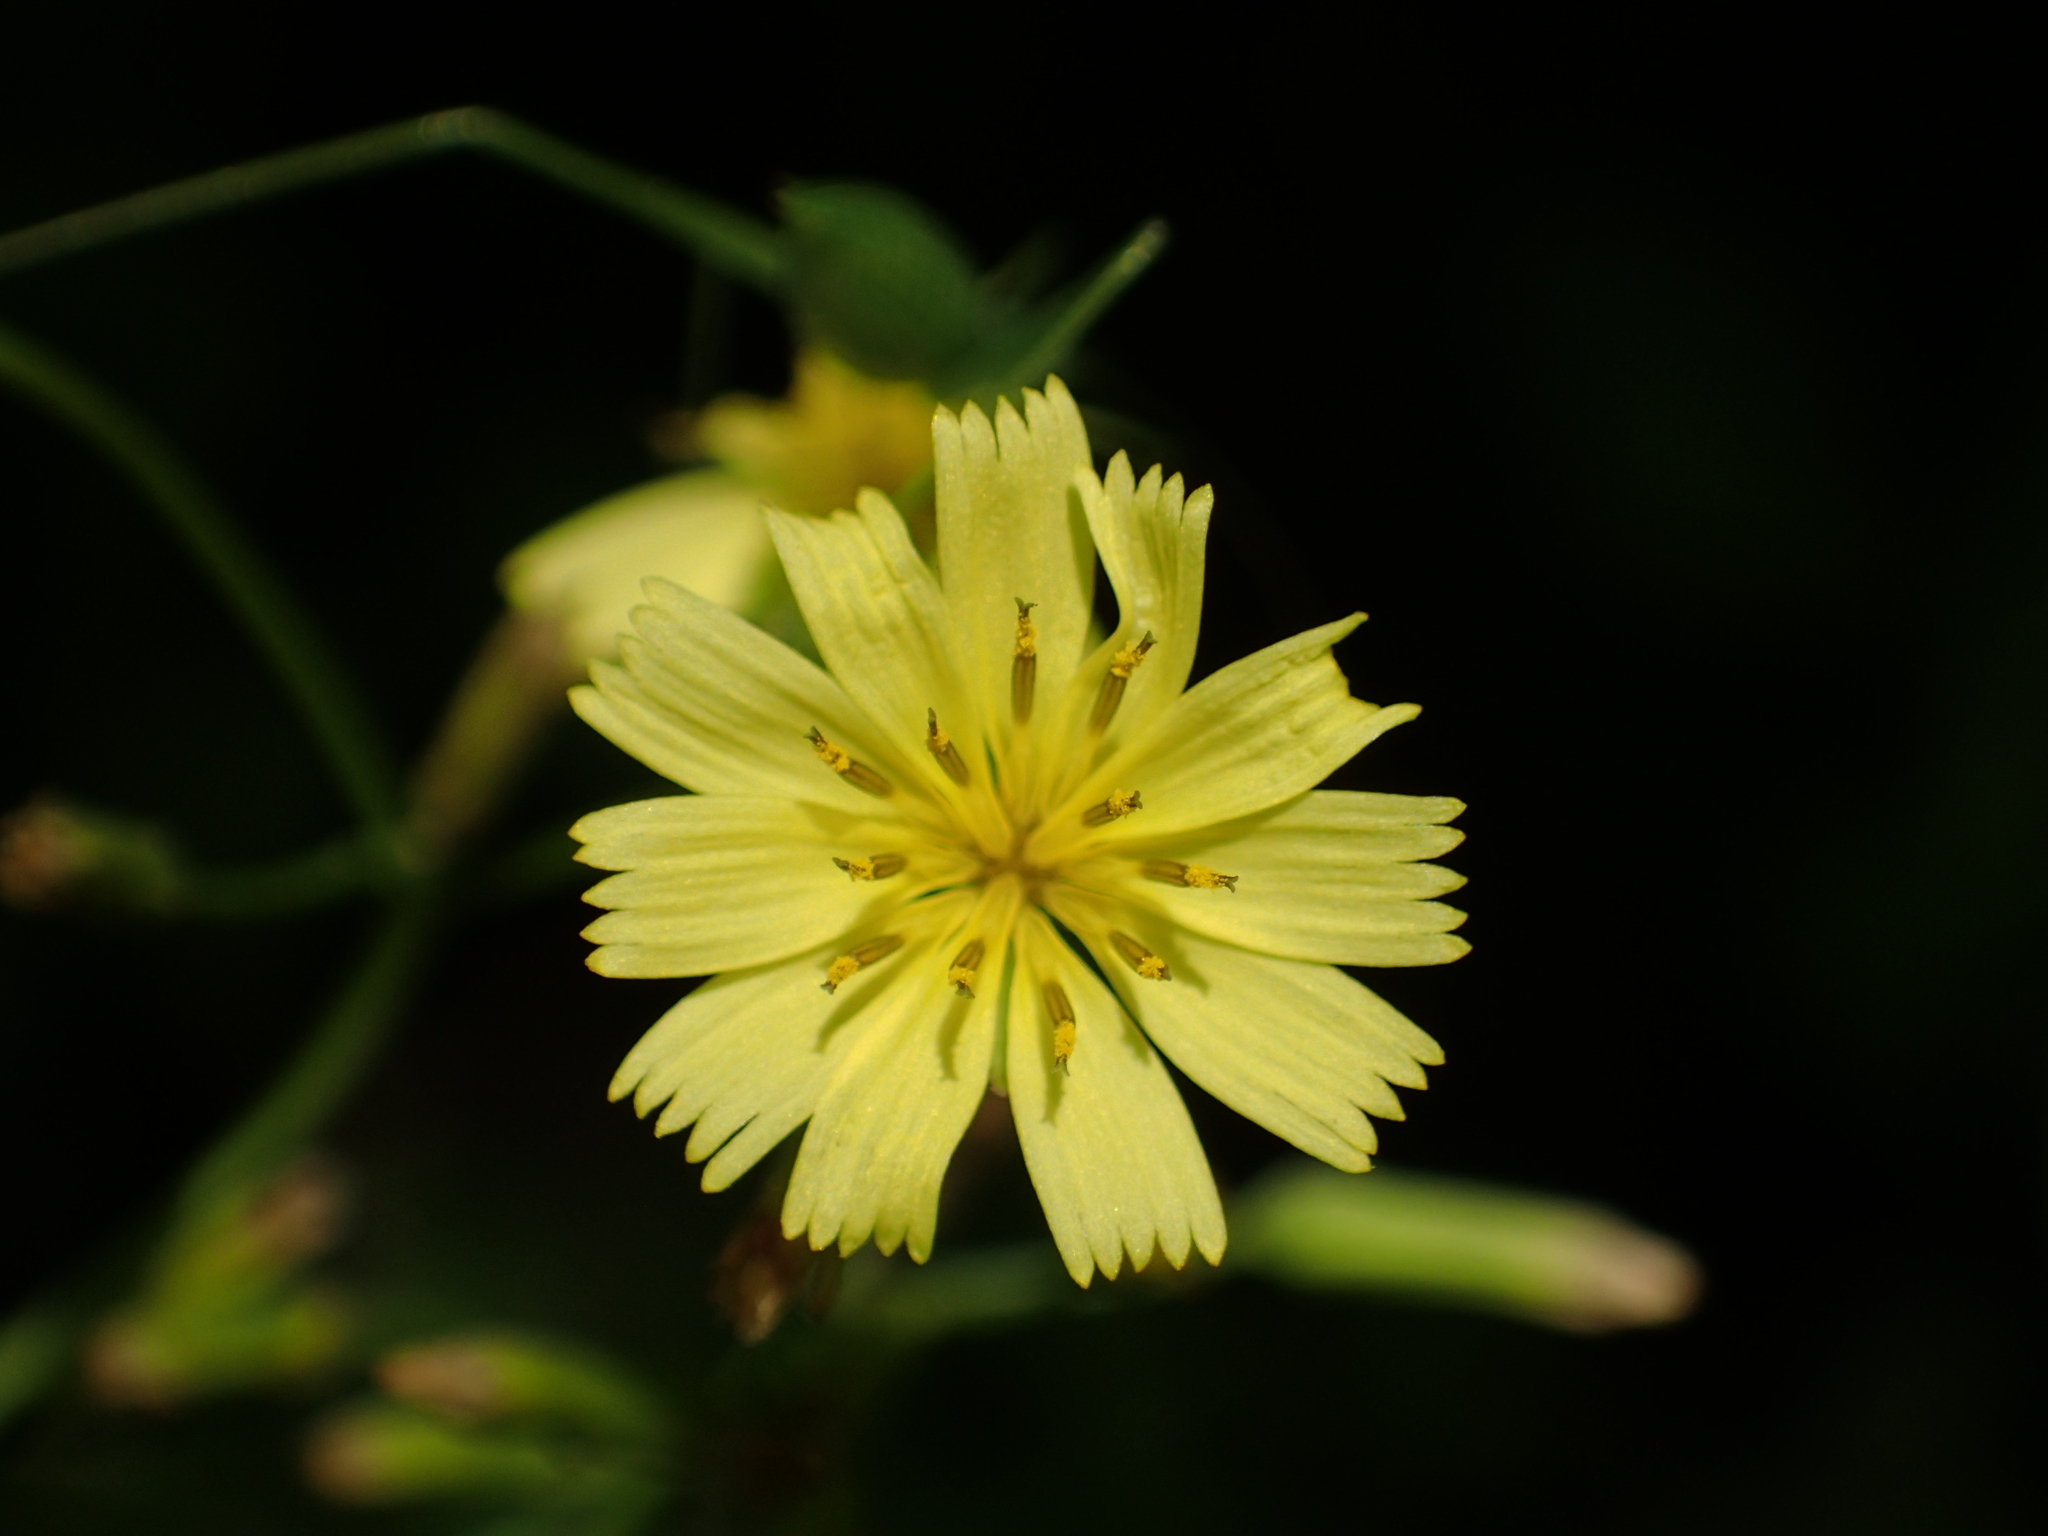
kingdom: Plantae
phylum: Tracheophyta
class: Magnoliopsida
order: Asterales
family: Asteraceae
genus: Ixeridium
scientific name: Ixeridium laevigatum
